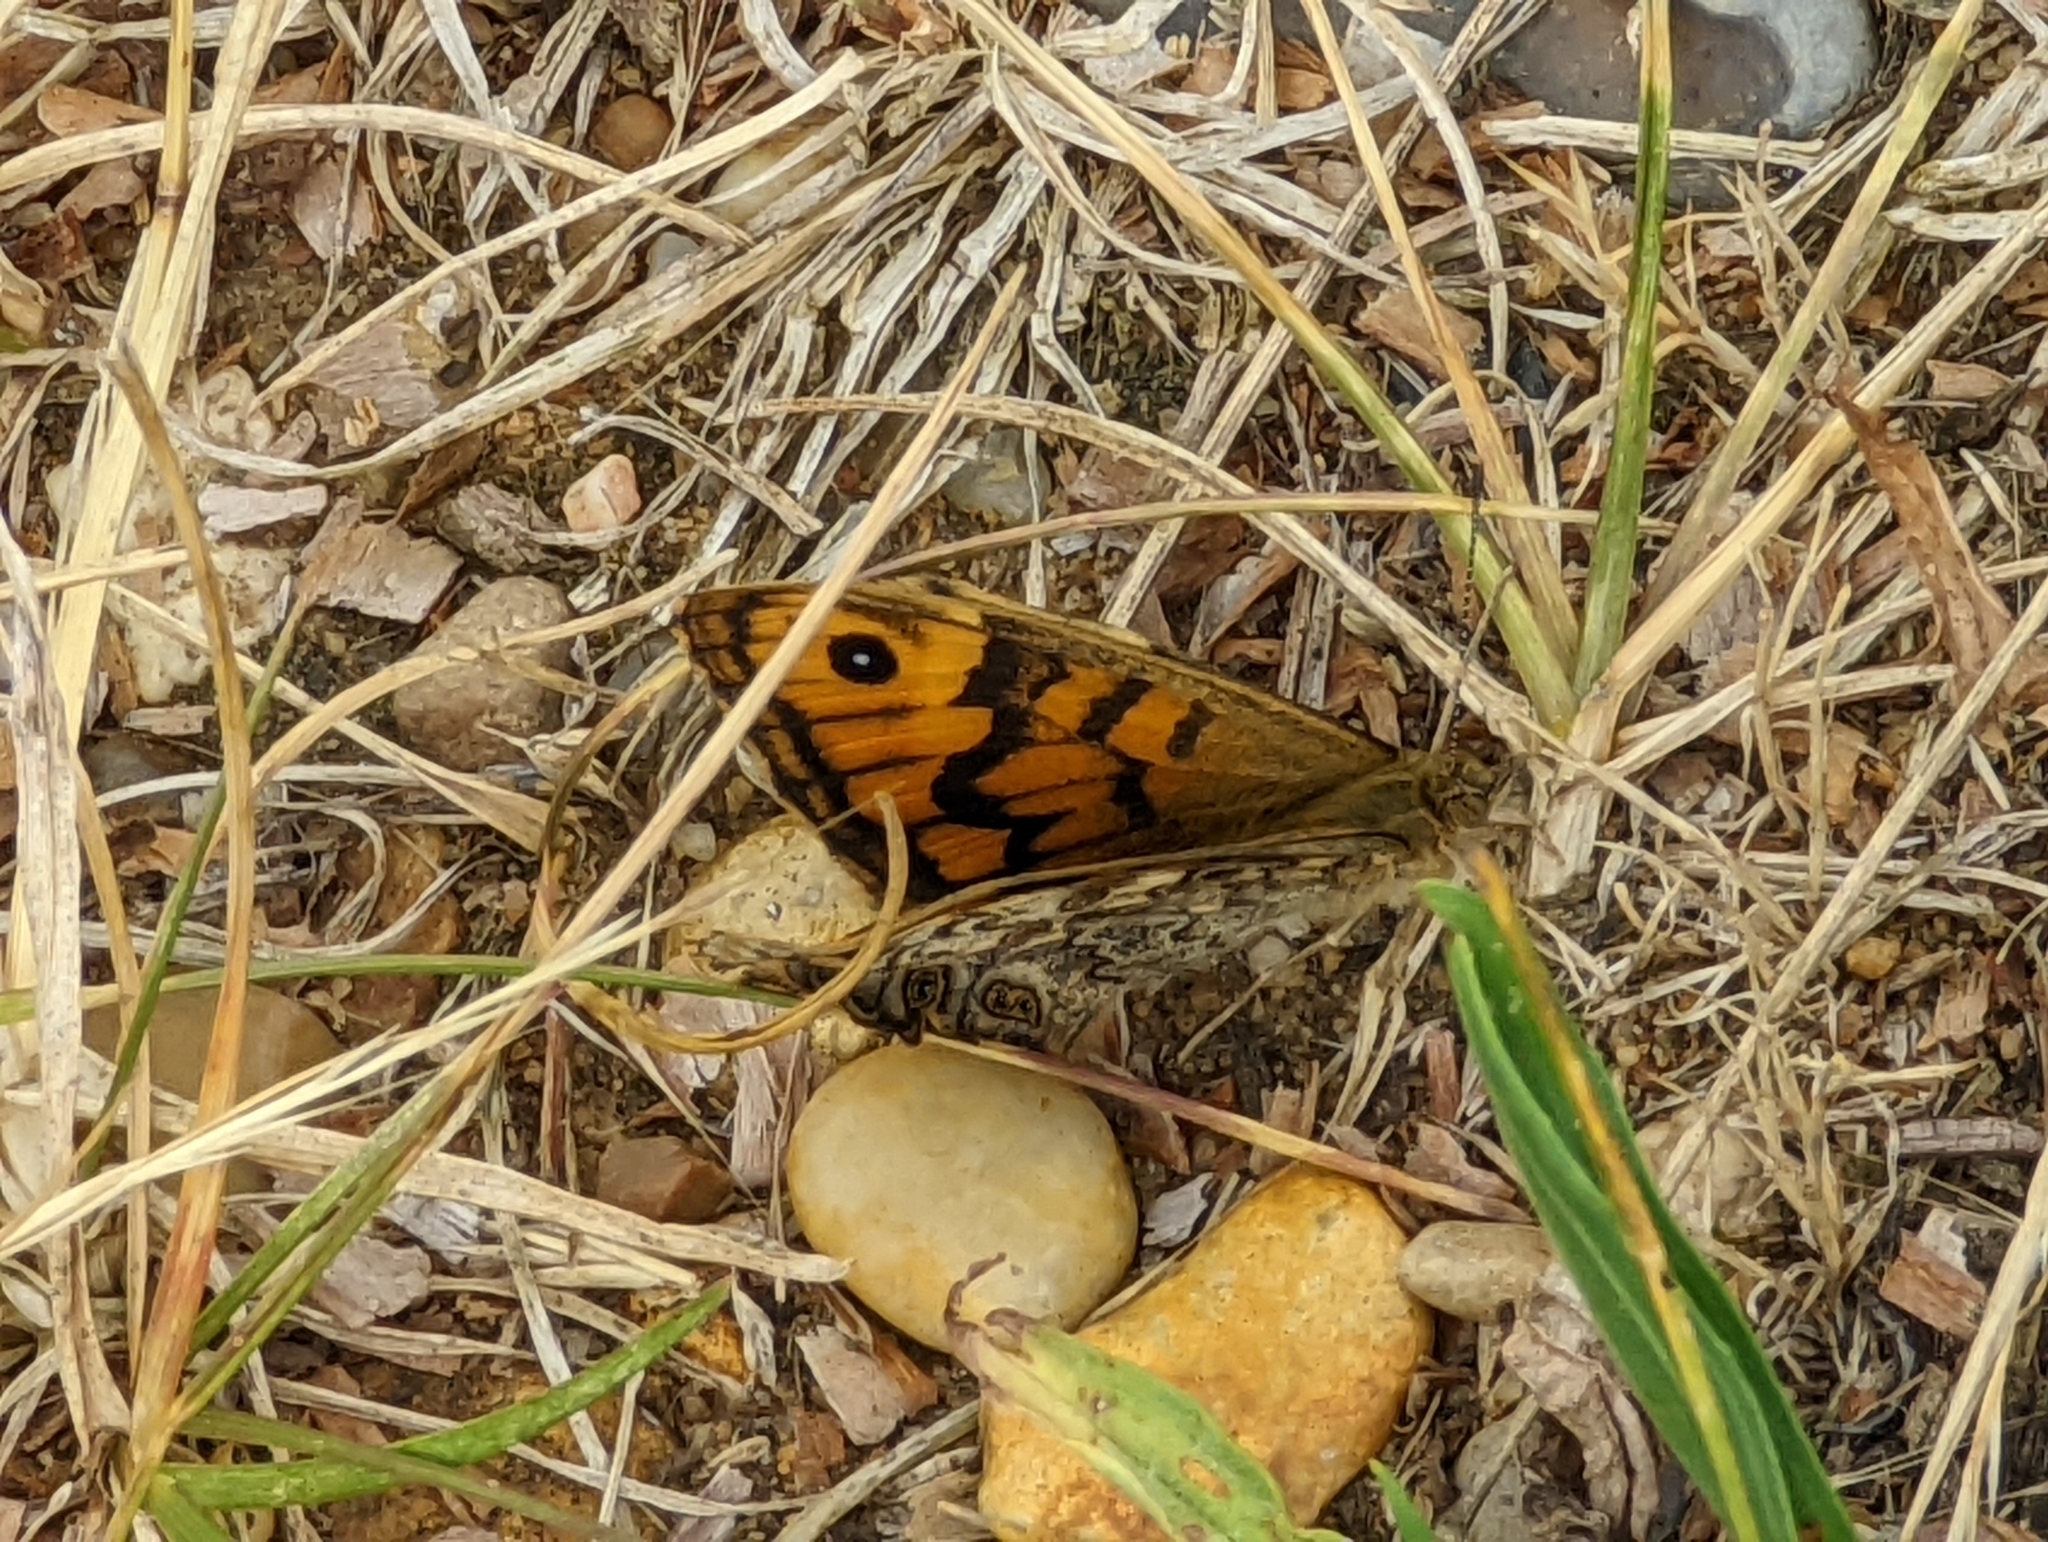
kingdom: Animalia
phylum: Arthropoda
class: Insecta
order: Lepidoptera
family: Nymphalidae
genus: Pararge
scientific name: Pararge Lasiommata megera
